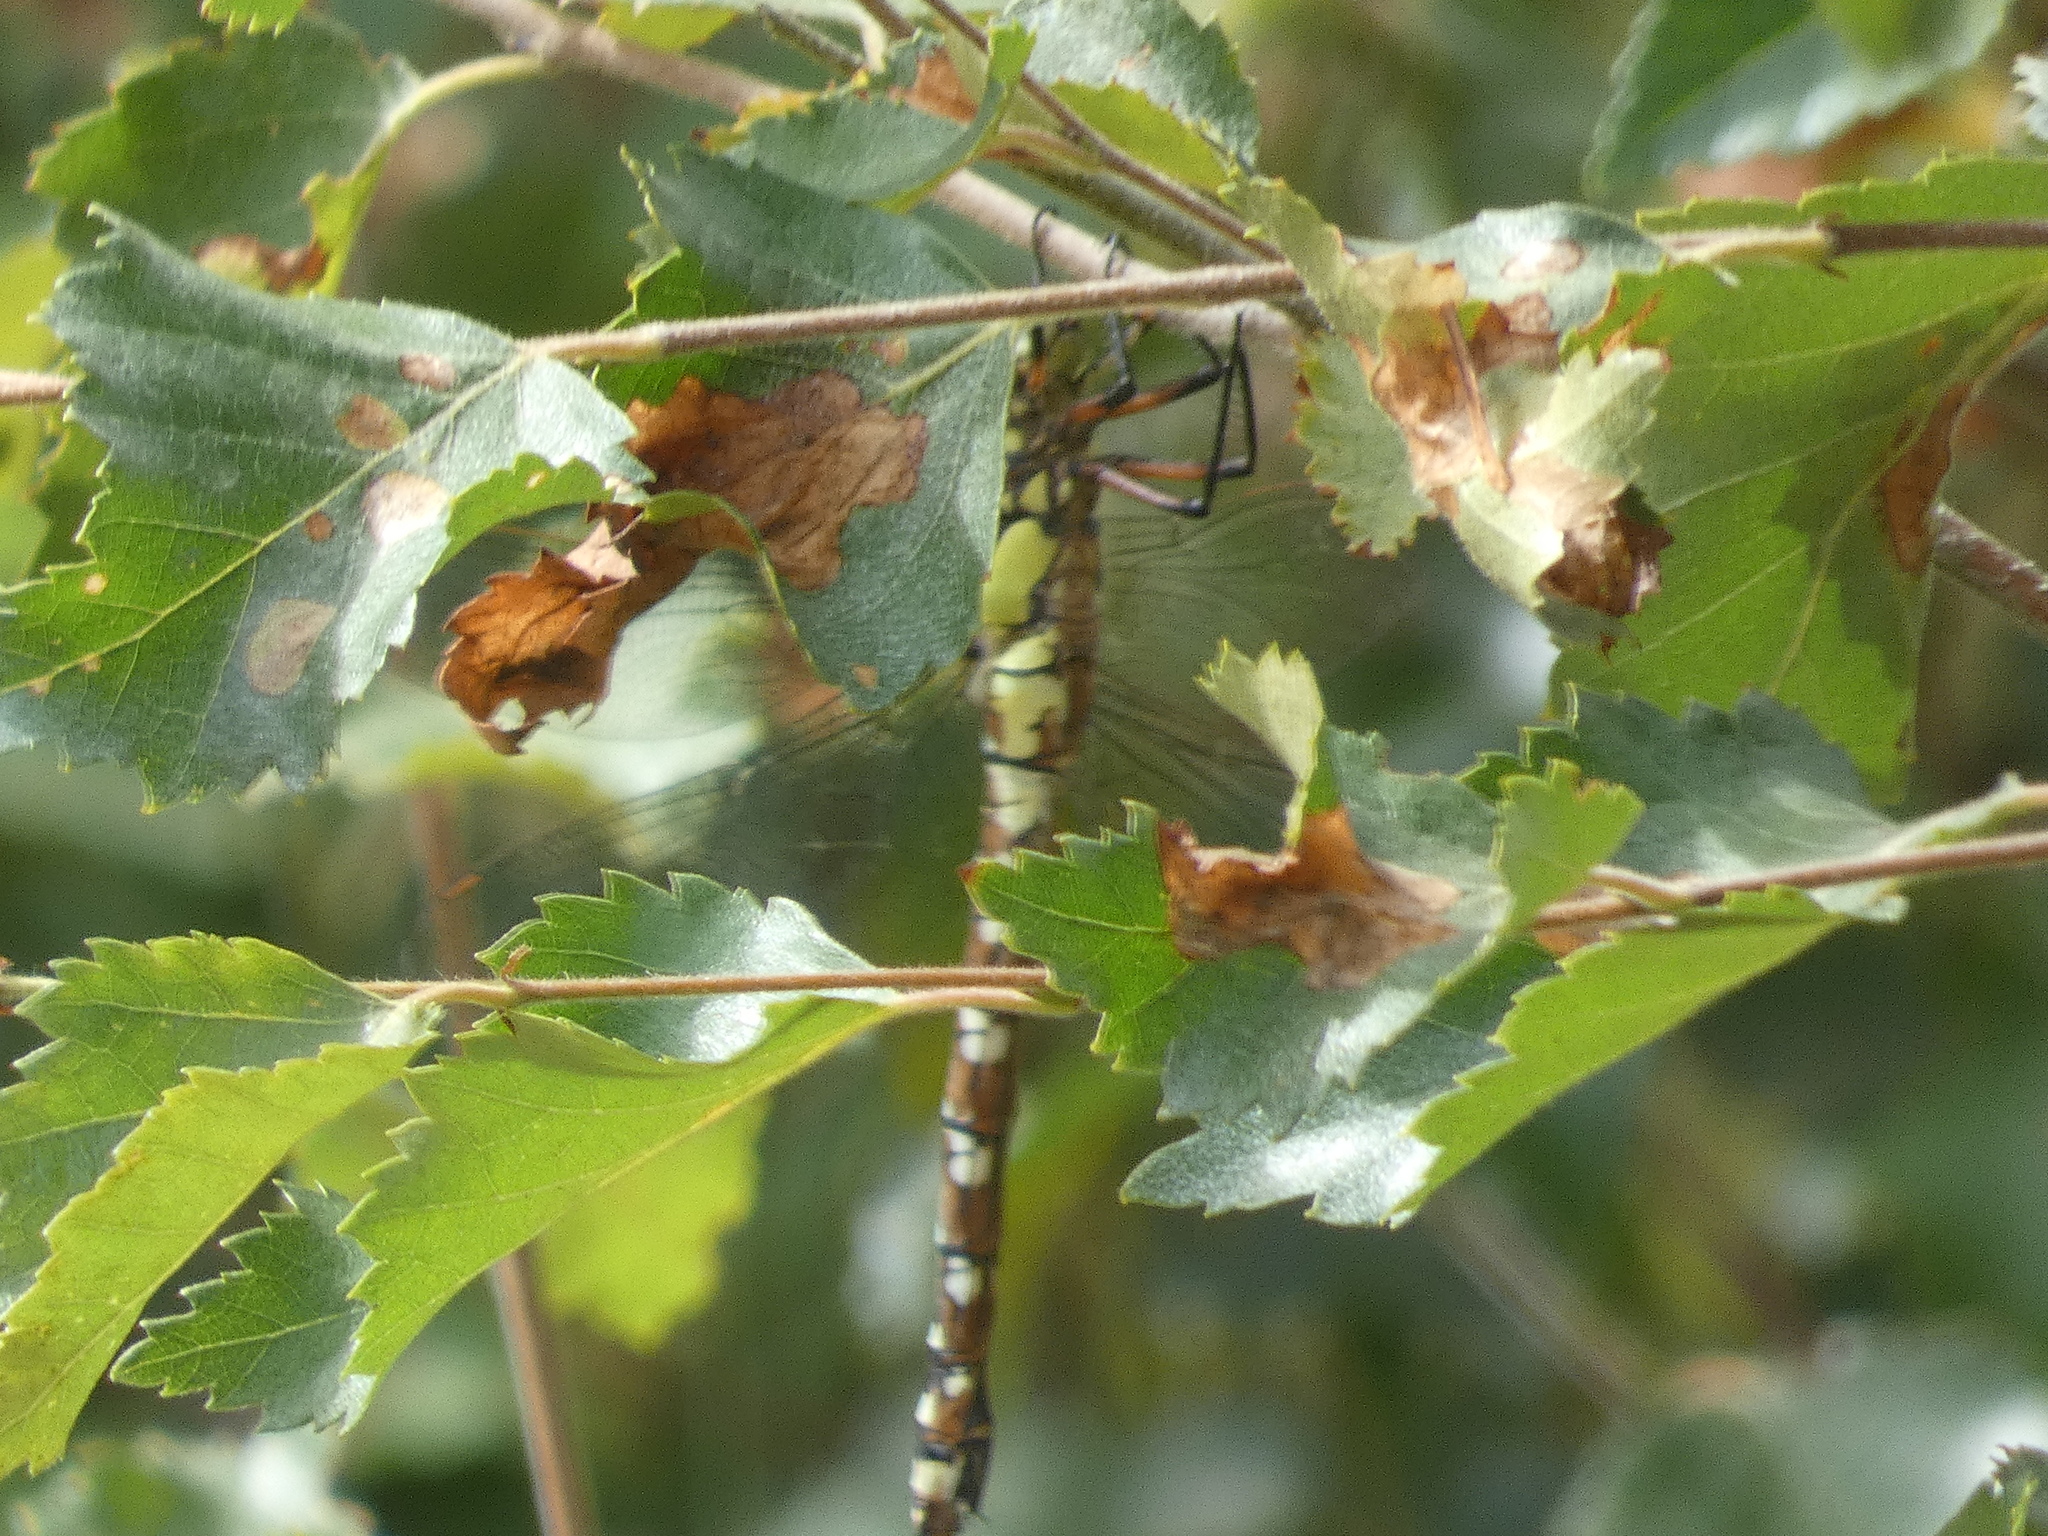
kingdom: Animalia
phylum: Arthropoda
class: Insecta
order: Odonata
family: Aeshnidae
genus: Aeshna
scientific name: Aeshna cyanea
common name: Southern hawker
